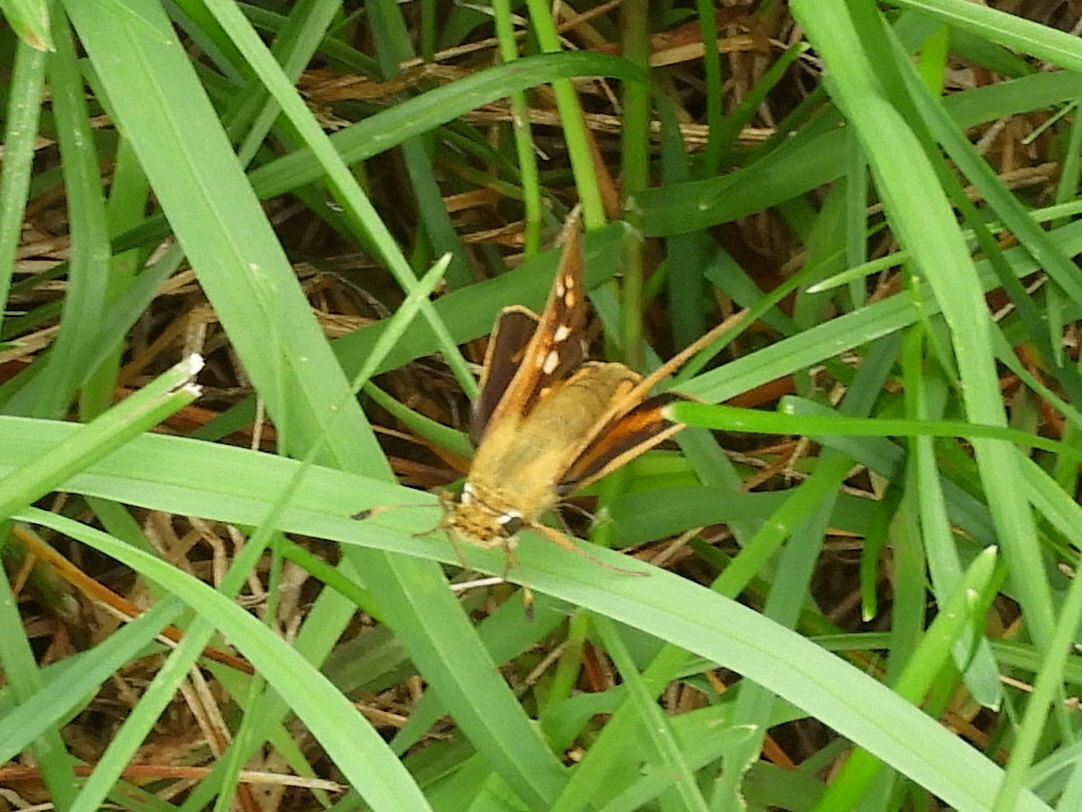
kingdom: Animalia
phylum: Arthropoda
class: Insecta
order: Lepidoptera
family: Hesperiidae
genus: Atalopedes
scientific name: Atalopedes
